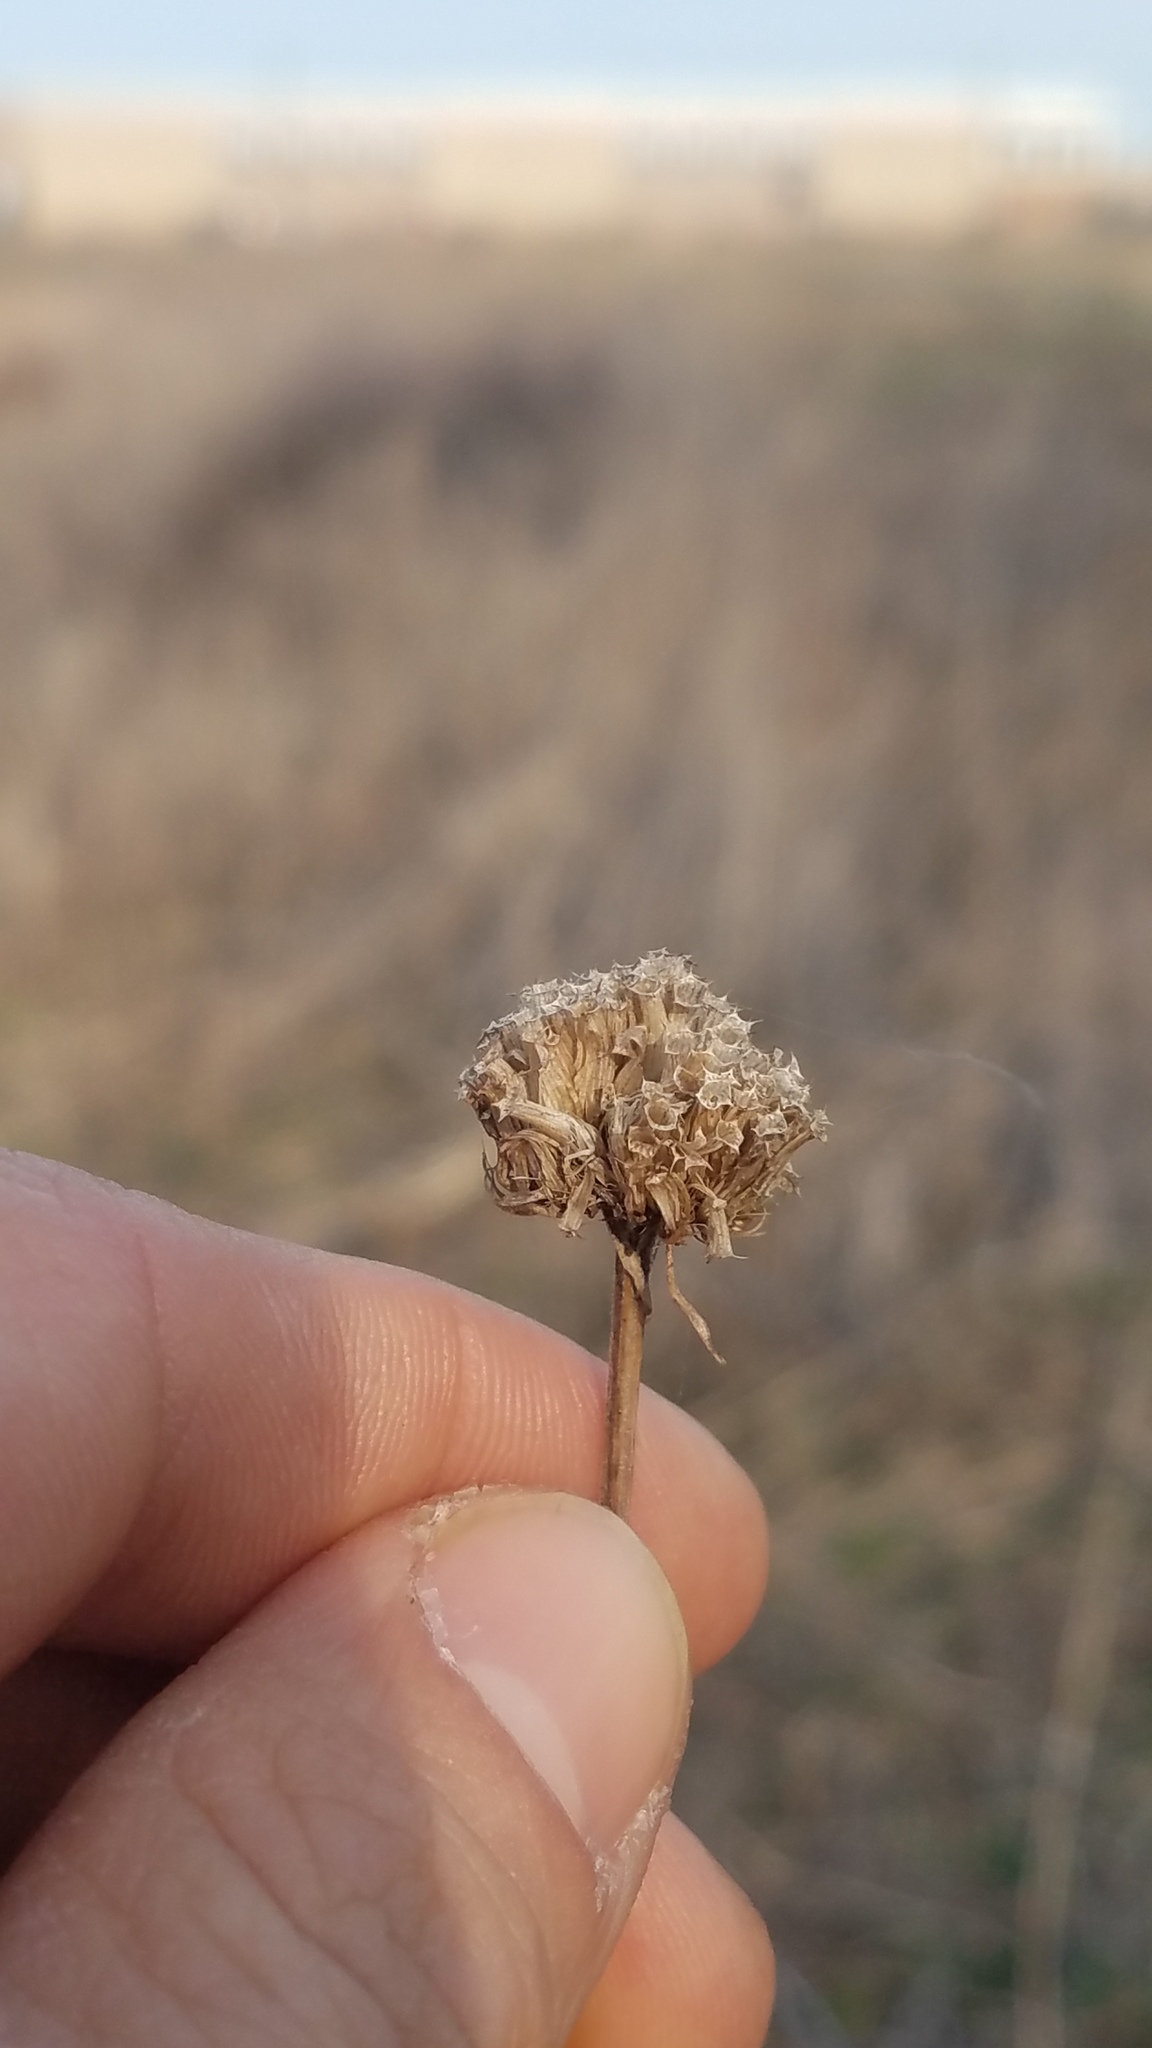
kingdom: Plantae
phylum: Tracheophyta
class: Magnoliopsida
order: Lamiales
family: Lamiaceae
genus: Monarda
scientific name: Monarda fistulosa
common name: Purple beebalm
